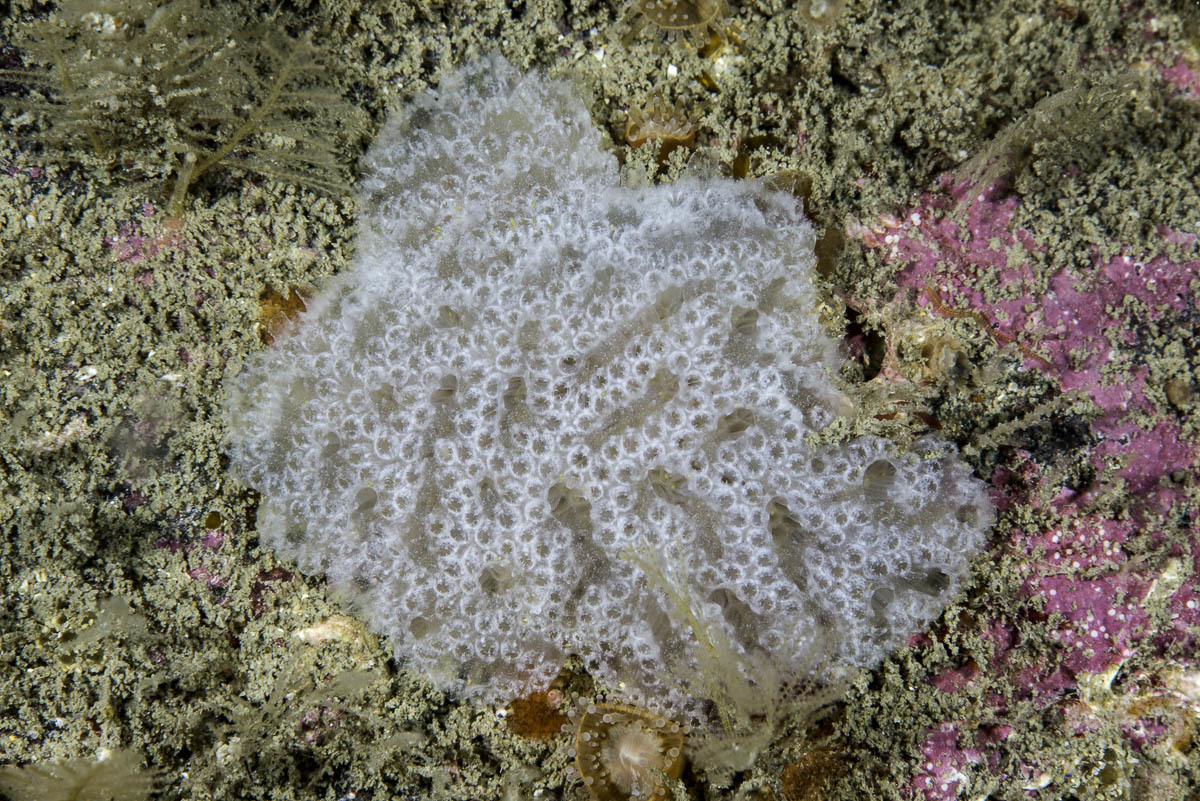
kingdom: Animalia
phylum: Chordata
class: Ascidiacea
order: Aplousobranchia
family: Polyclinidae
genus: Aplidium
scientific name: Aplidium nordmanni
